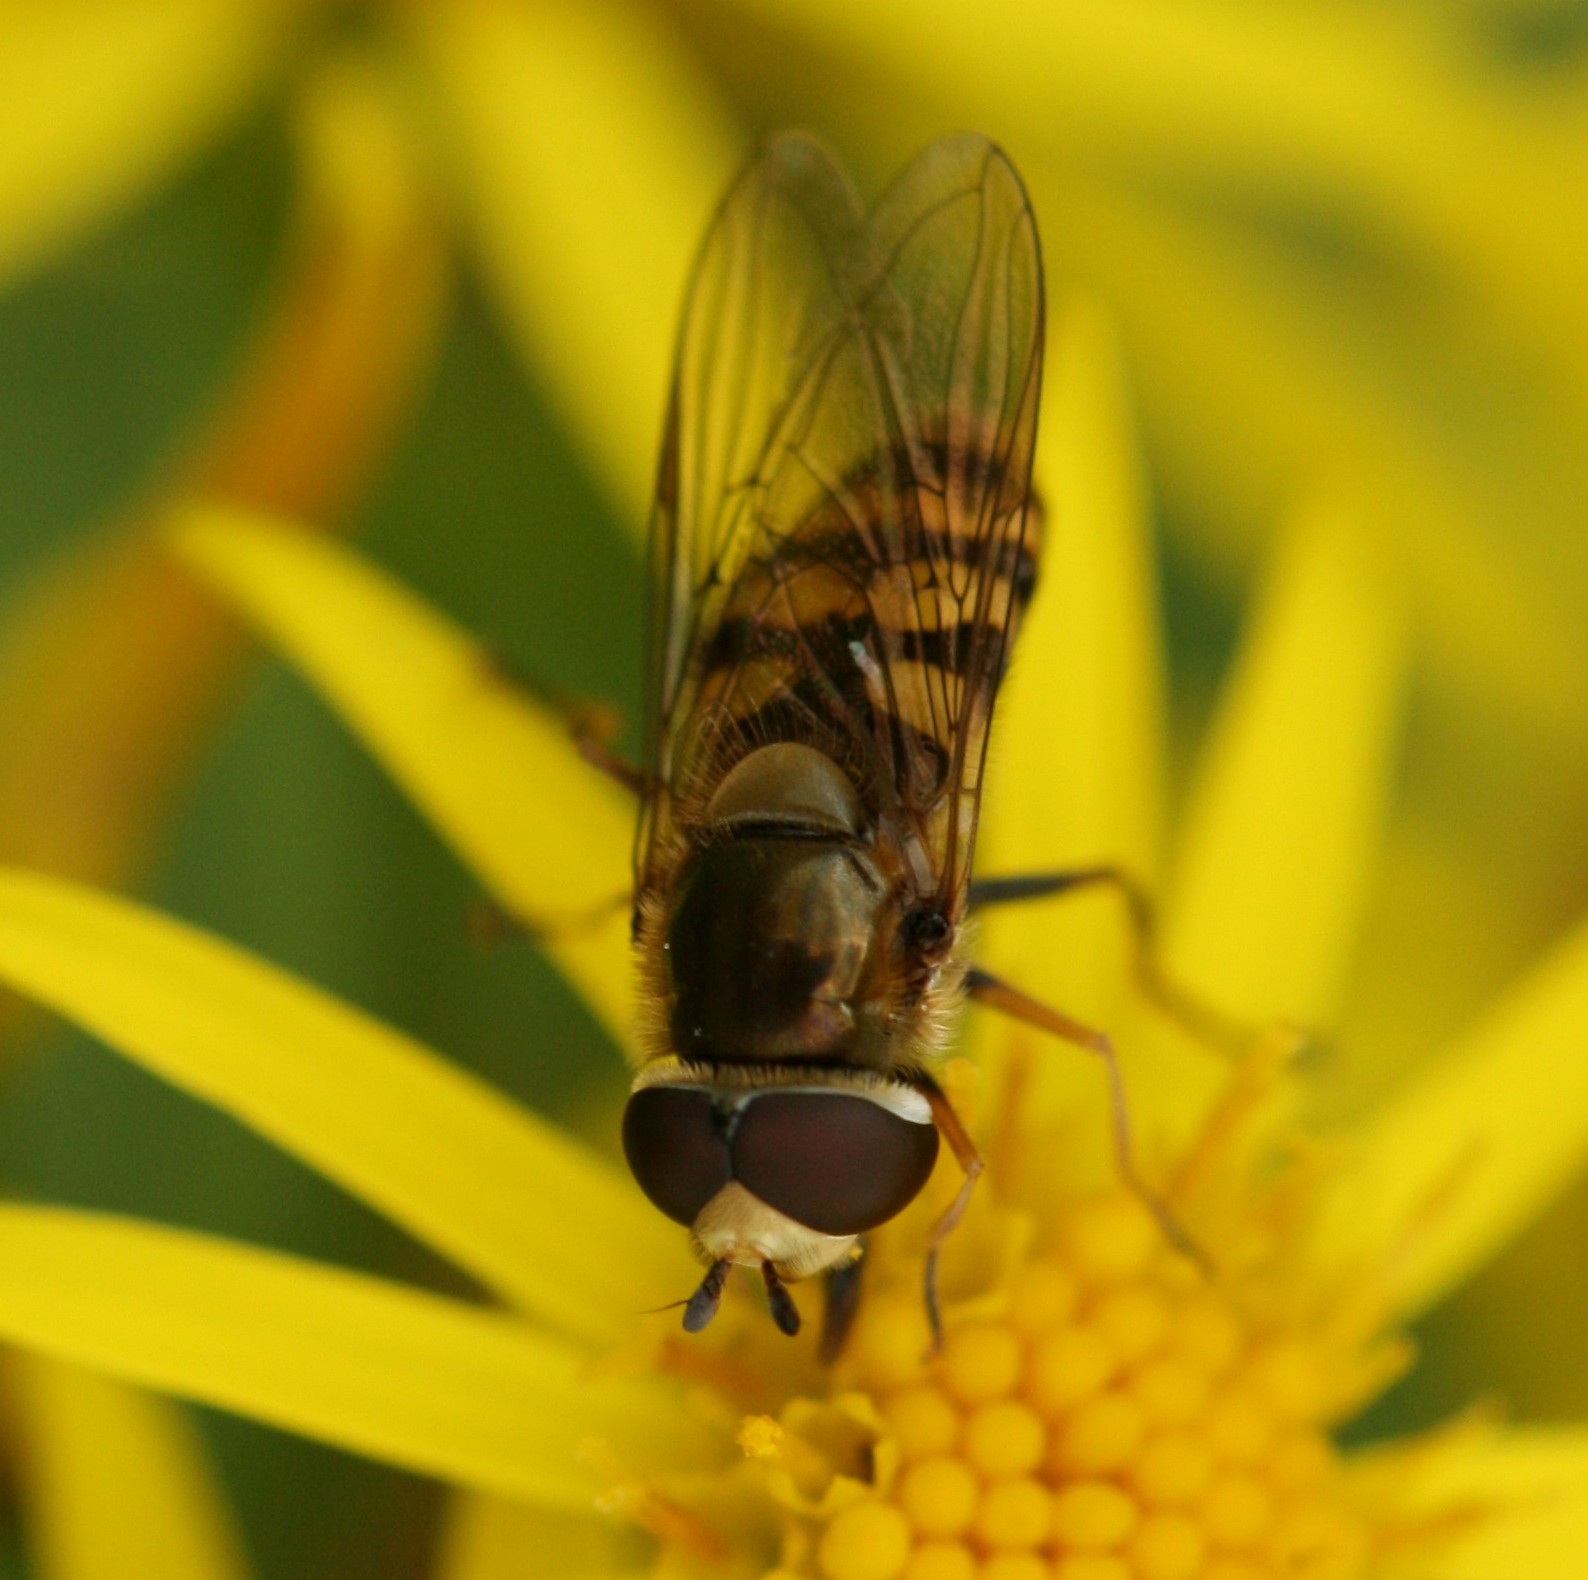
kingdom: Animalia
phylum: Arthropoda
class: Insecta
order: Diptera
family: Syrphidae
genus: Eupeodes
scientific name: Eupeodes
